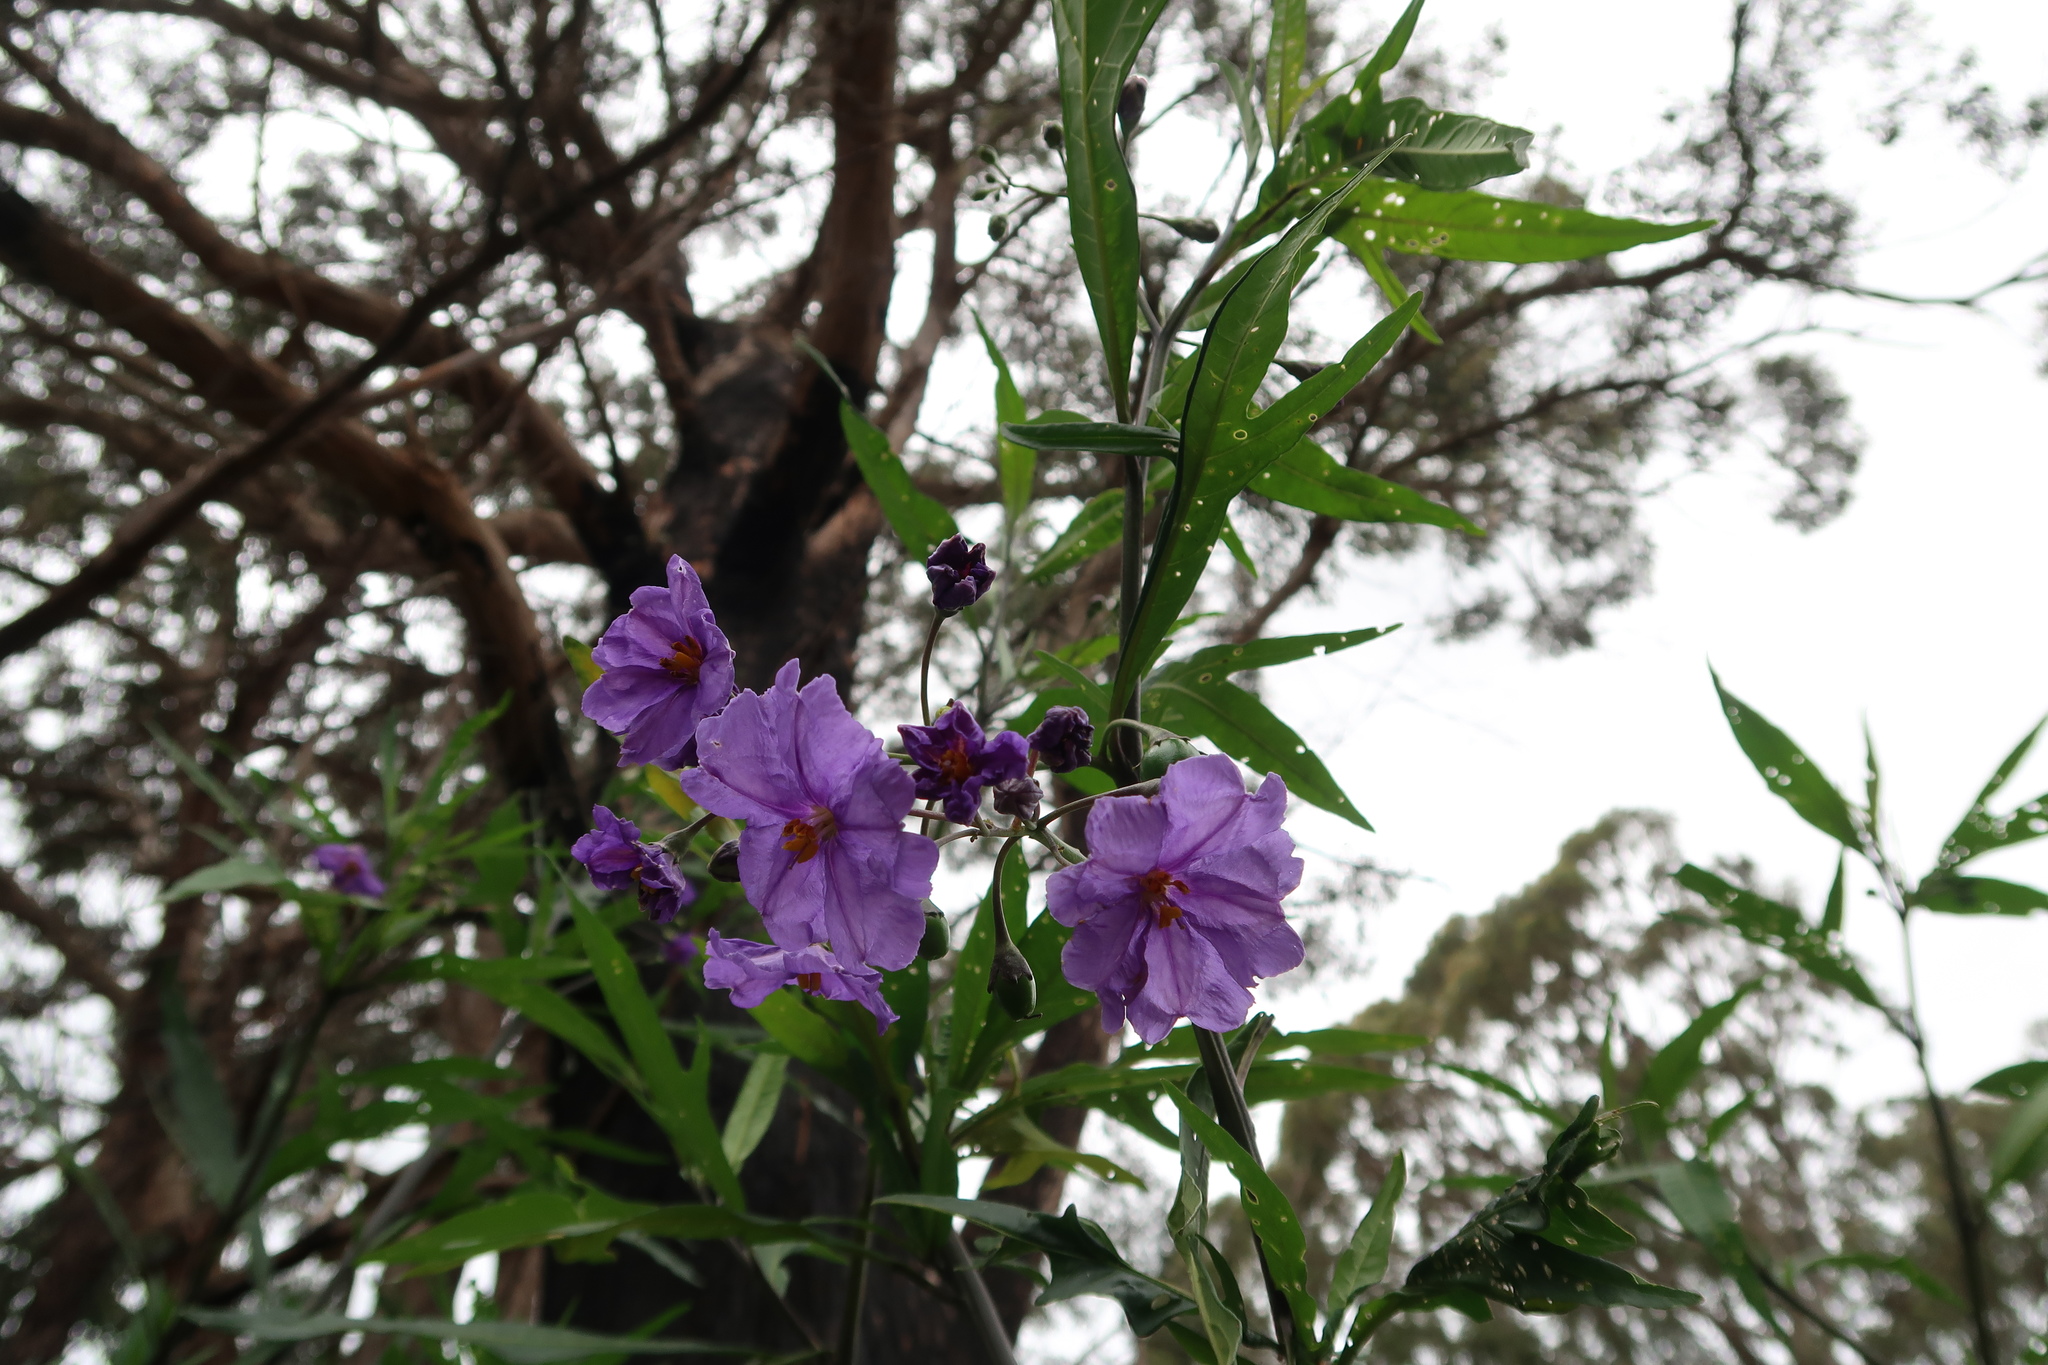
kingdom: Plantae
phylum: Tracheophyta
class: Magnoliopsida
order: Solanales
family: Solanaceae
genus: Solanum
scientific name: Solanum laciniatum
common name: Kangaroo-apple
